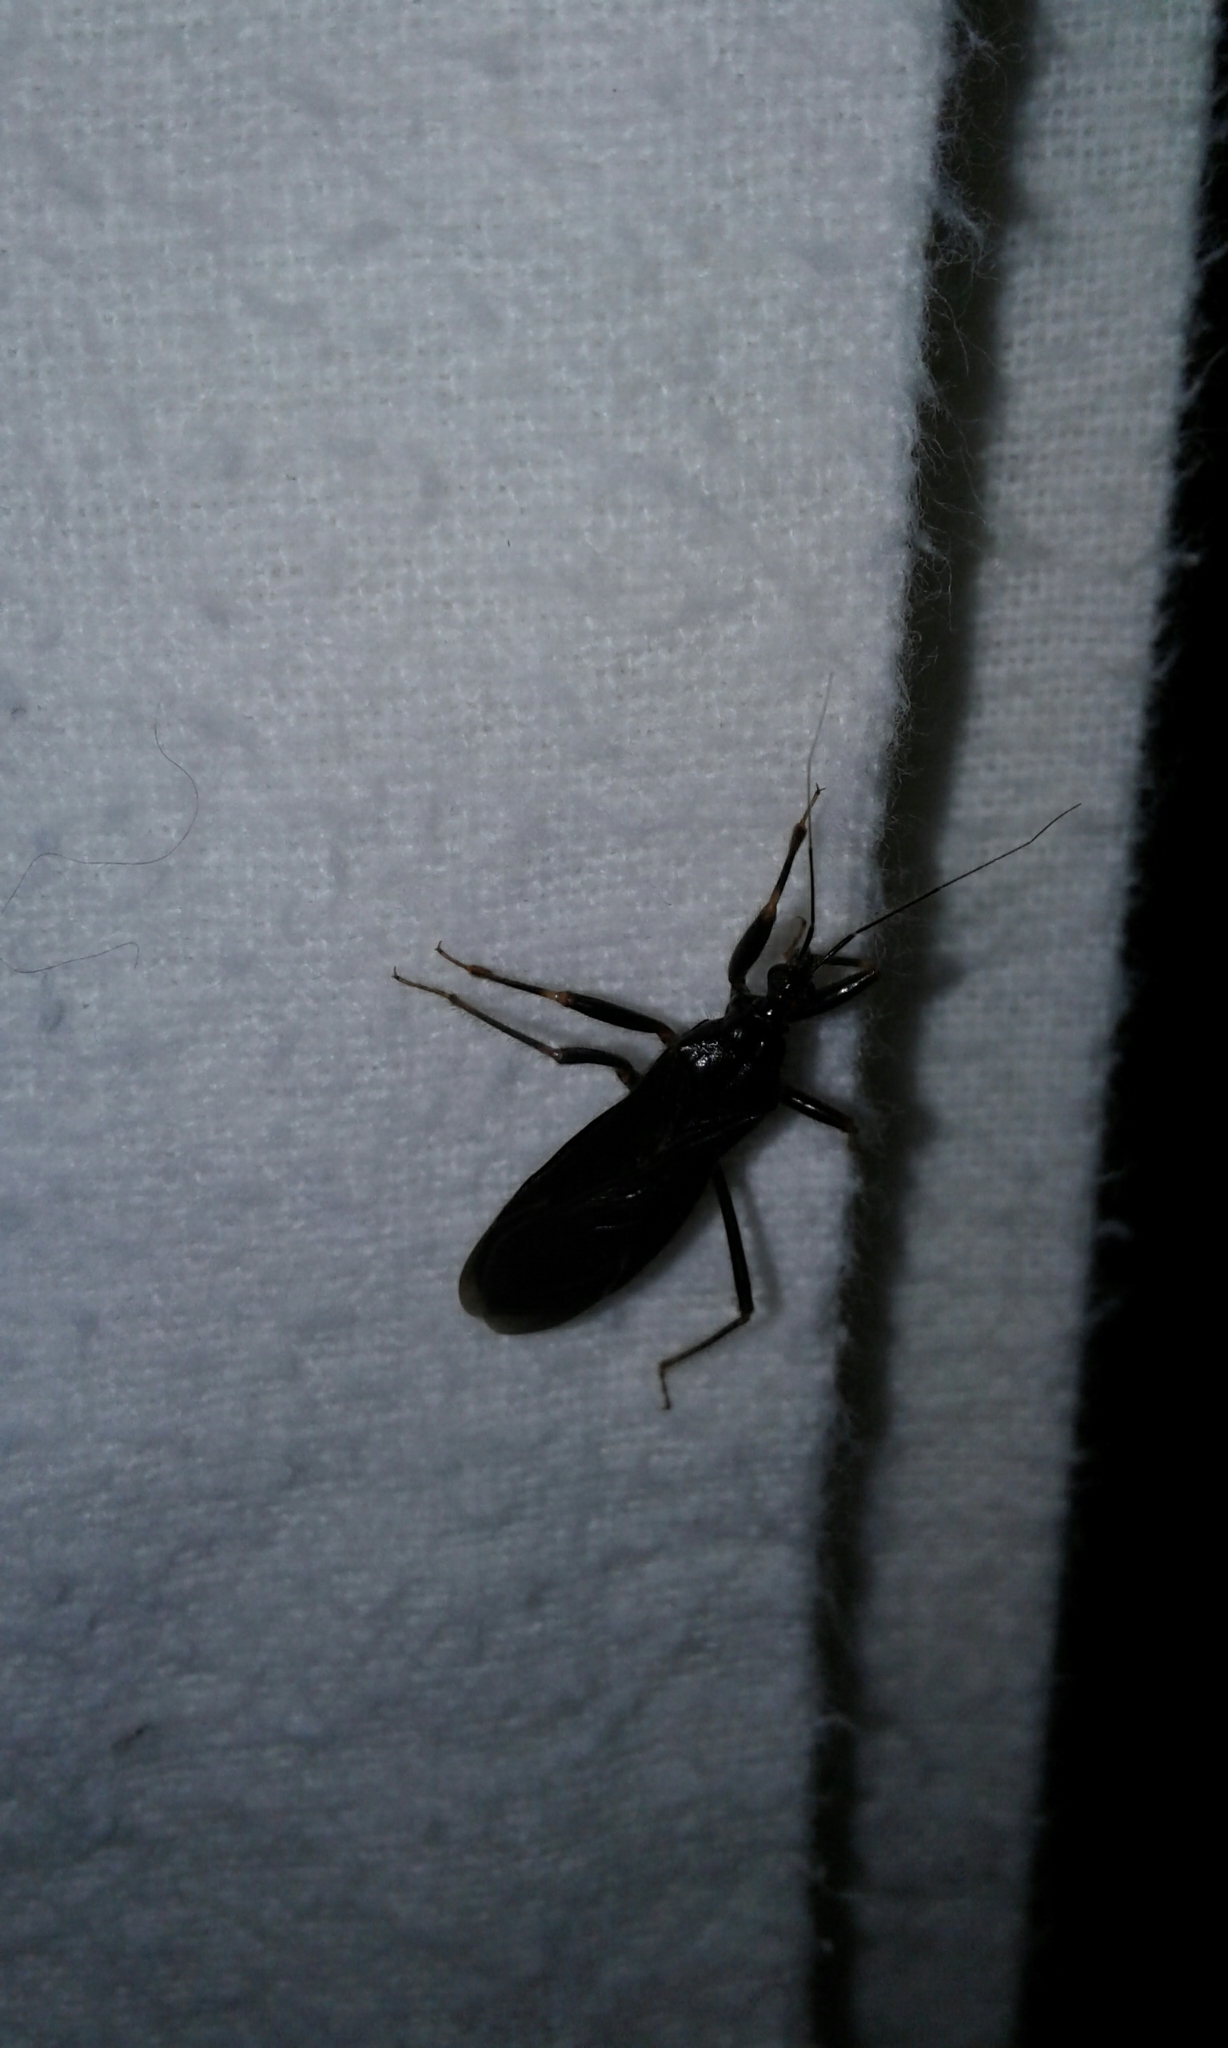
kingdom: Animalia
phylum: Arthropoda
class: Insecta
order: Hemiptera
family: Reduviidae
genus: Reduvius
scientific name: Reduvius personatus
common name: Masked hunter
